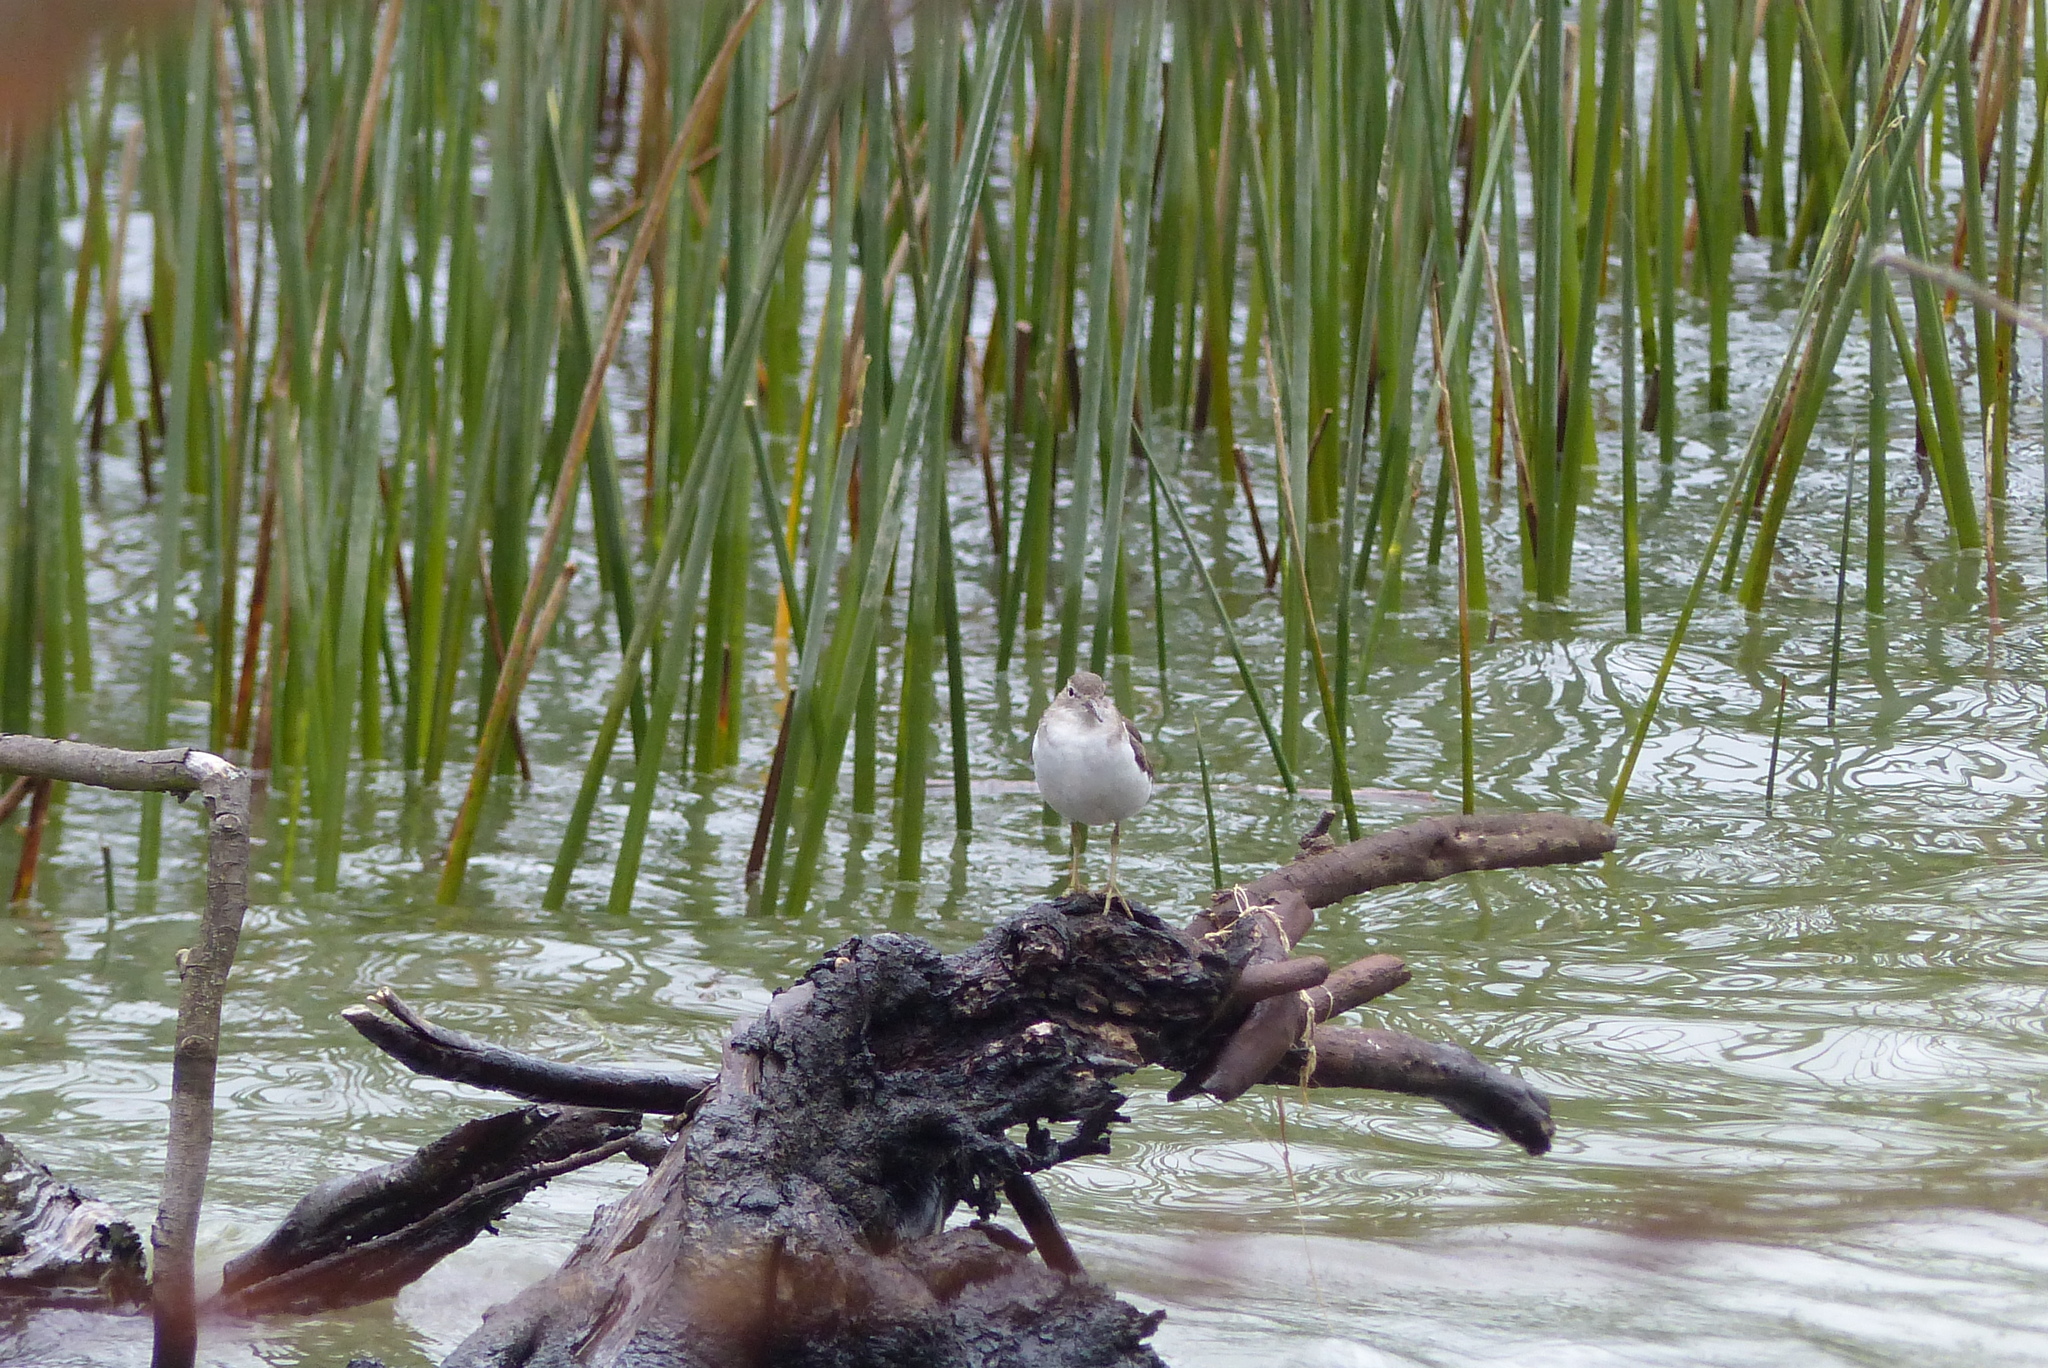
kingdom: Animalia
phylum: Chordata
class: Aves
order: Charadriiformes
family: Scolopacidae
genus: Actitis
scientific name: Actitis macularius
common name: Spotted sandpiper
